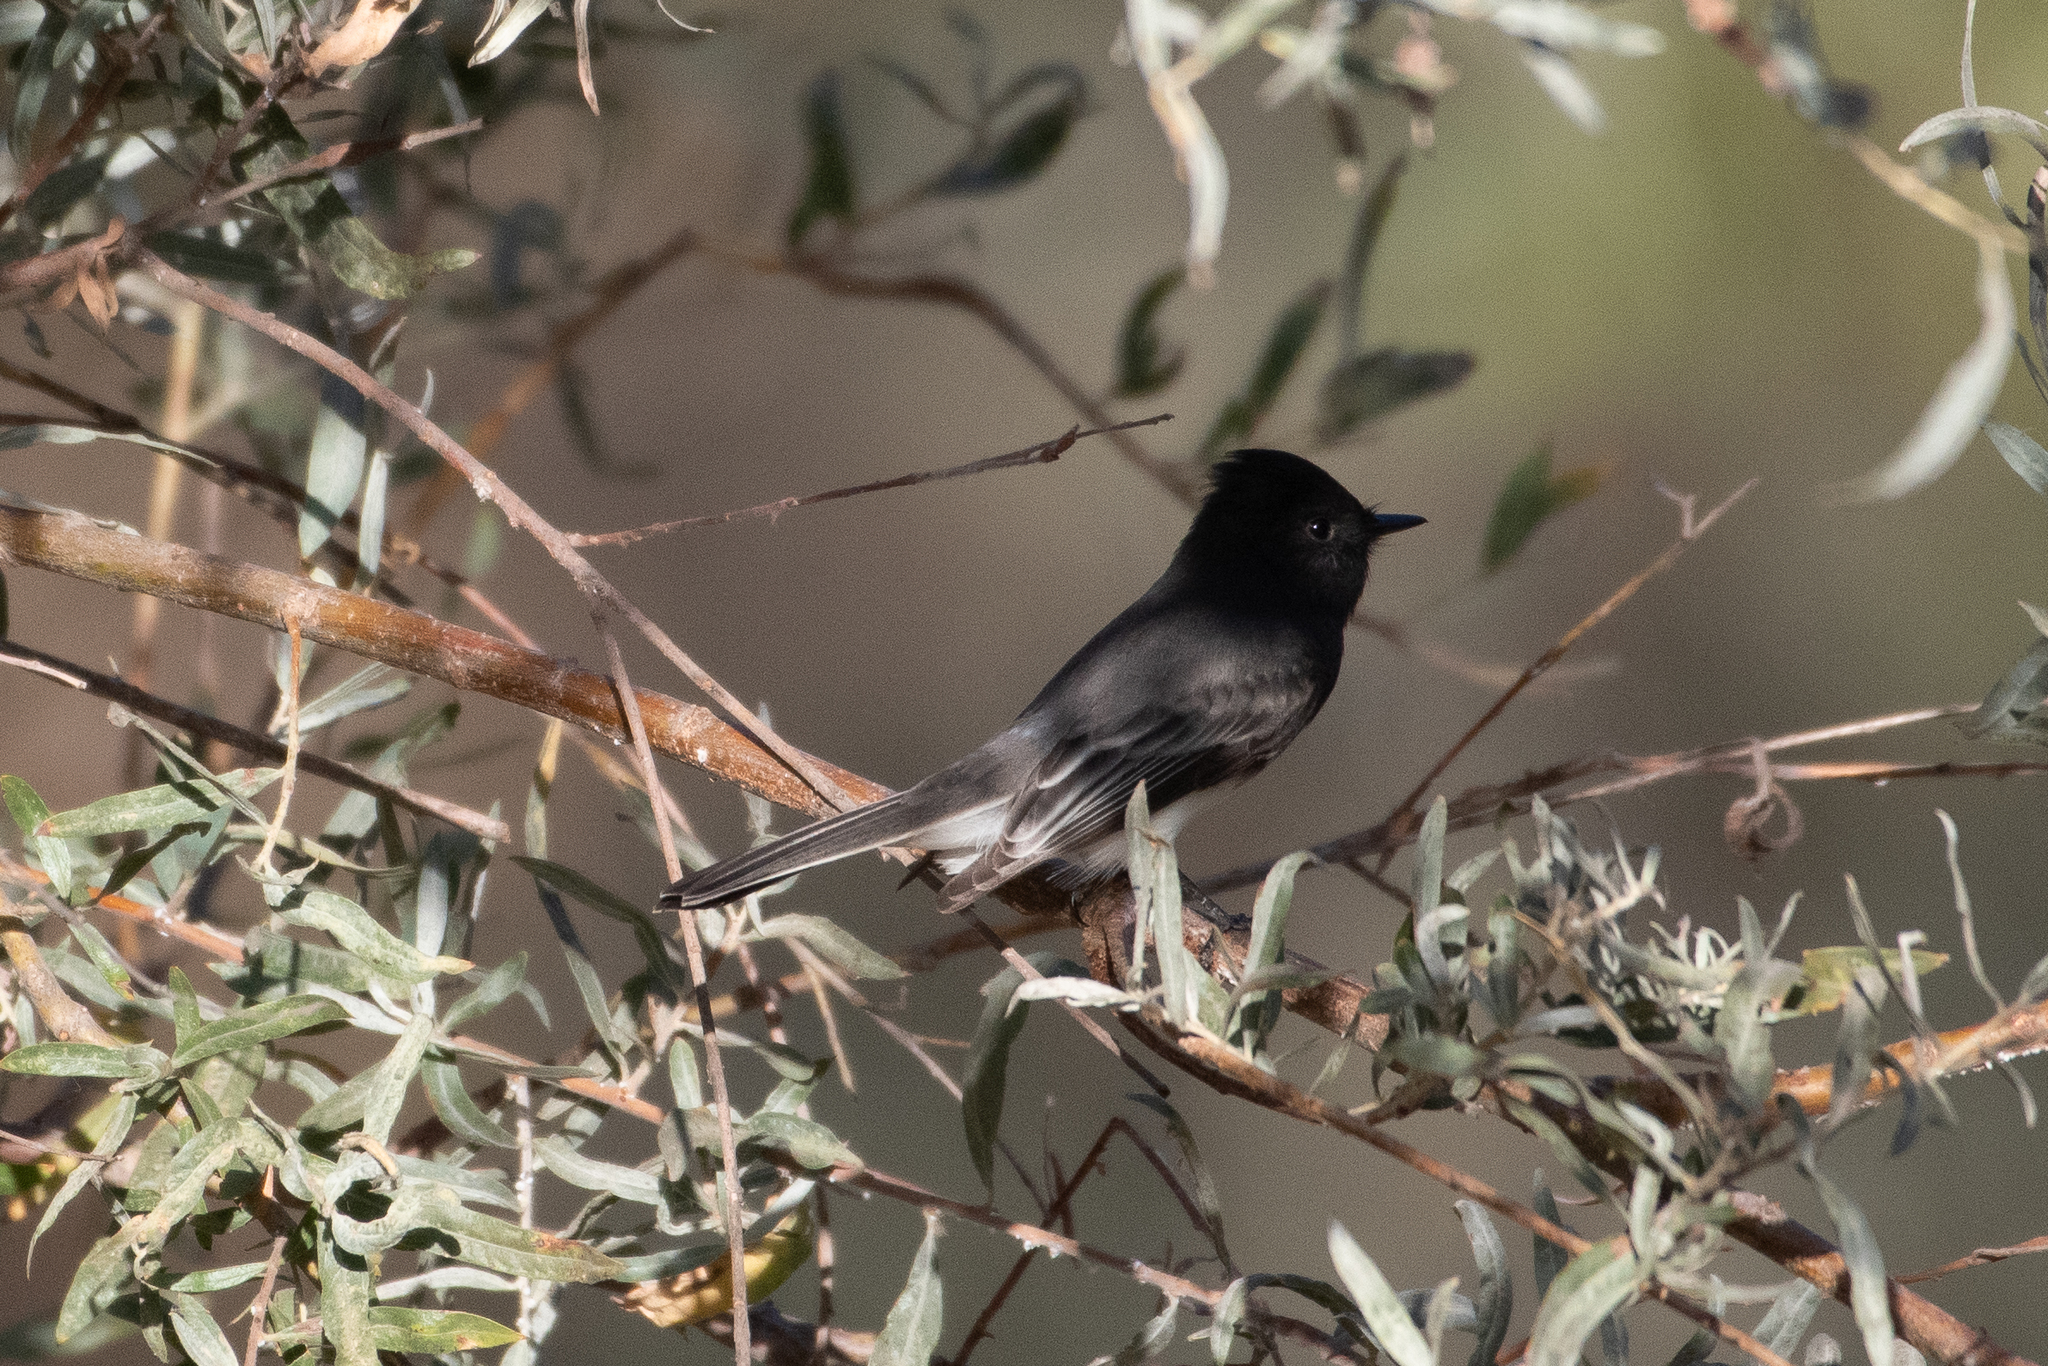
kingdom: Animalia
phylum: Chordata
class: Aves
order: Passeriformes
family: Tyrannidae
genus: Sayornis
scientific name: Sayornis nigricans
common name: Black phoebe
